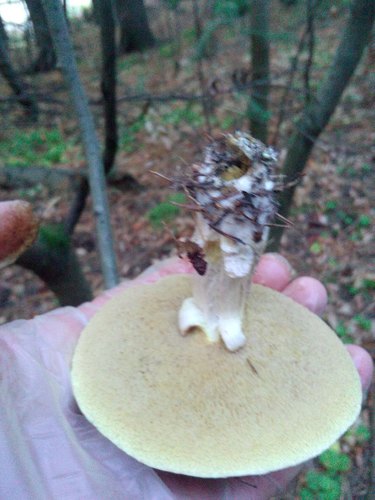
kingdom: Fungi
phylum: Basidiomycota
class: Agaricomycetes
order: Boletales
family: Suillaceae
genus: Suillus
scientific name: Suillus placidus
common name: Slippery white bolete
